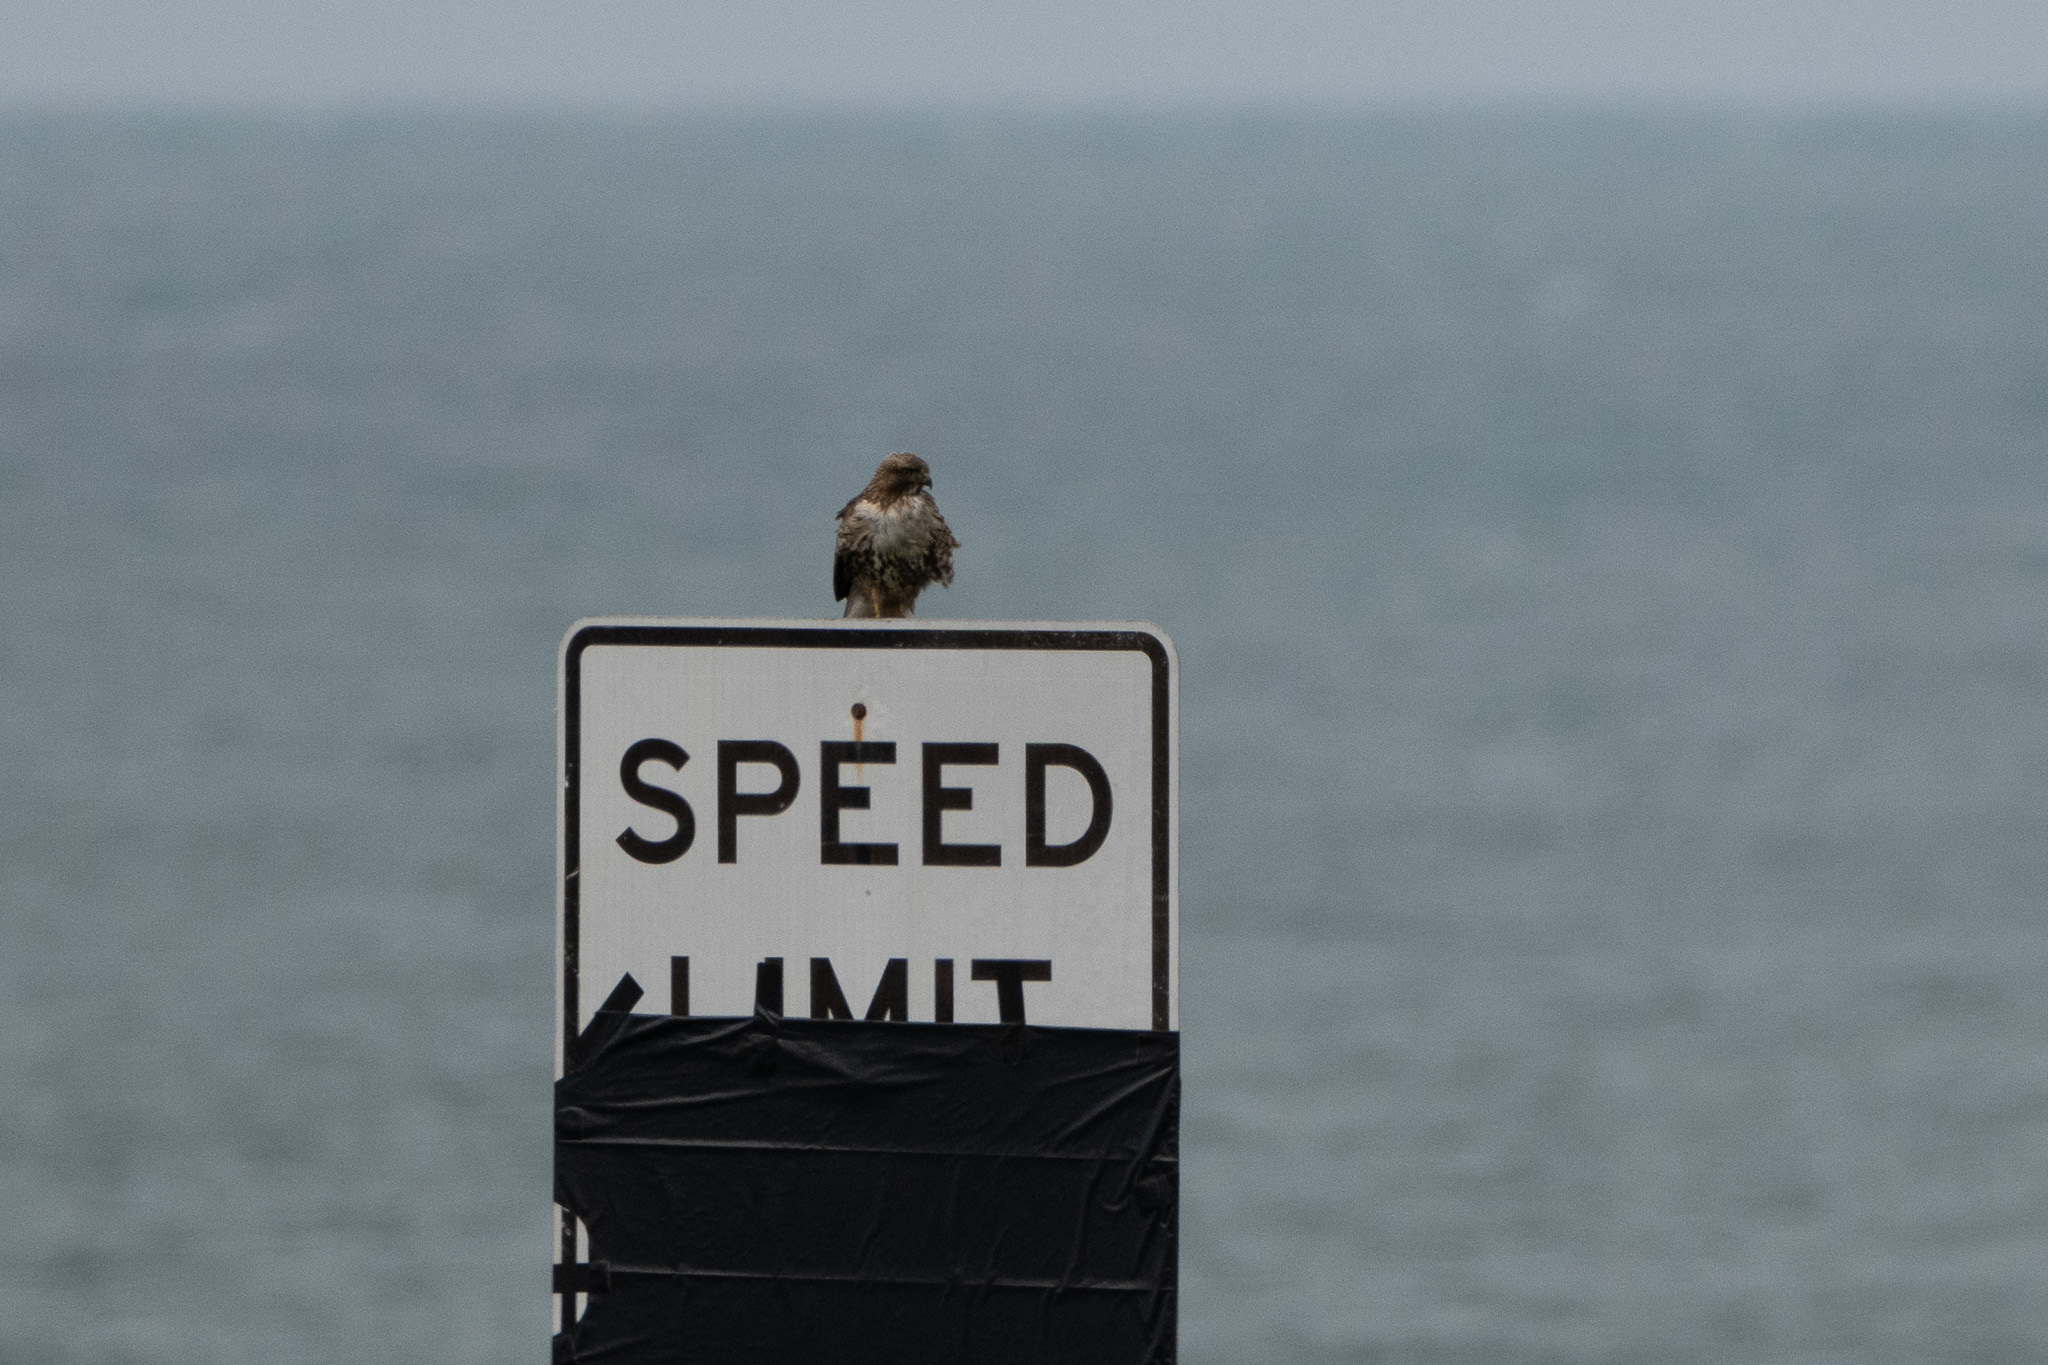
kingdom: Animalia
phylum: Chordata
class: Aves
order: Accipitriformes
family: Accipitridae
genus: Buteo
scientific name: Buteo jamaicensis
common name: Red-tailed hawk
